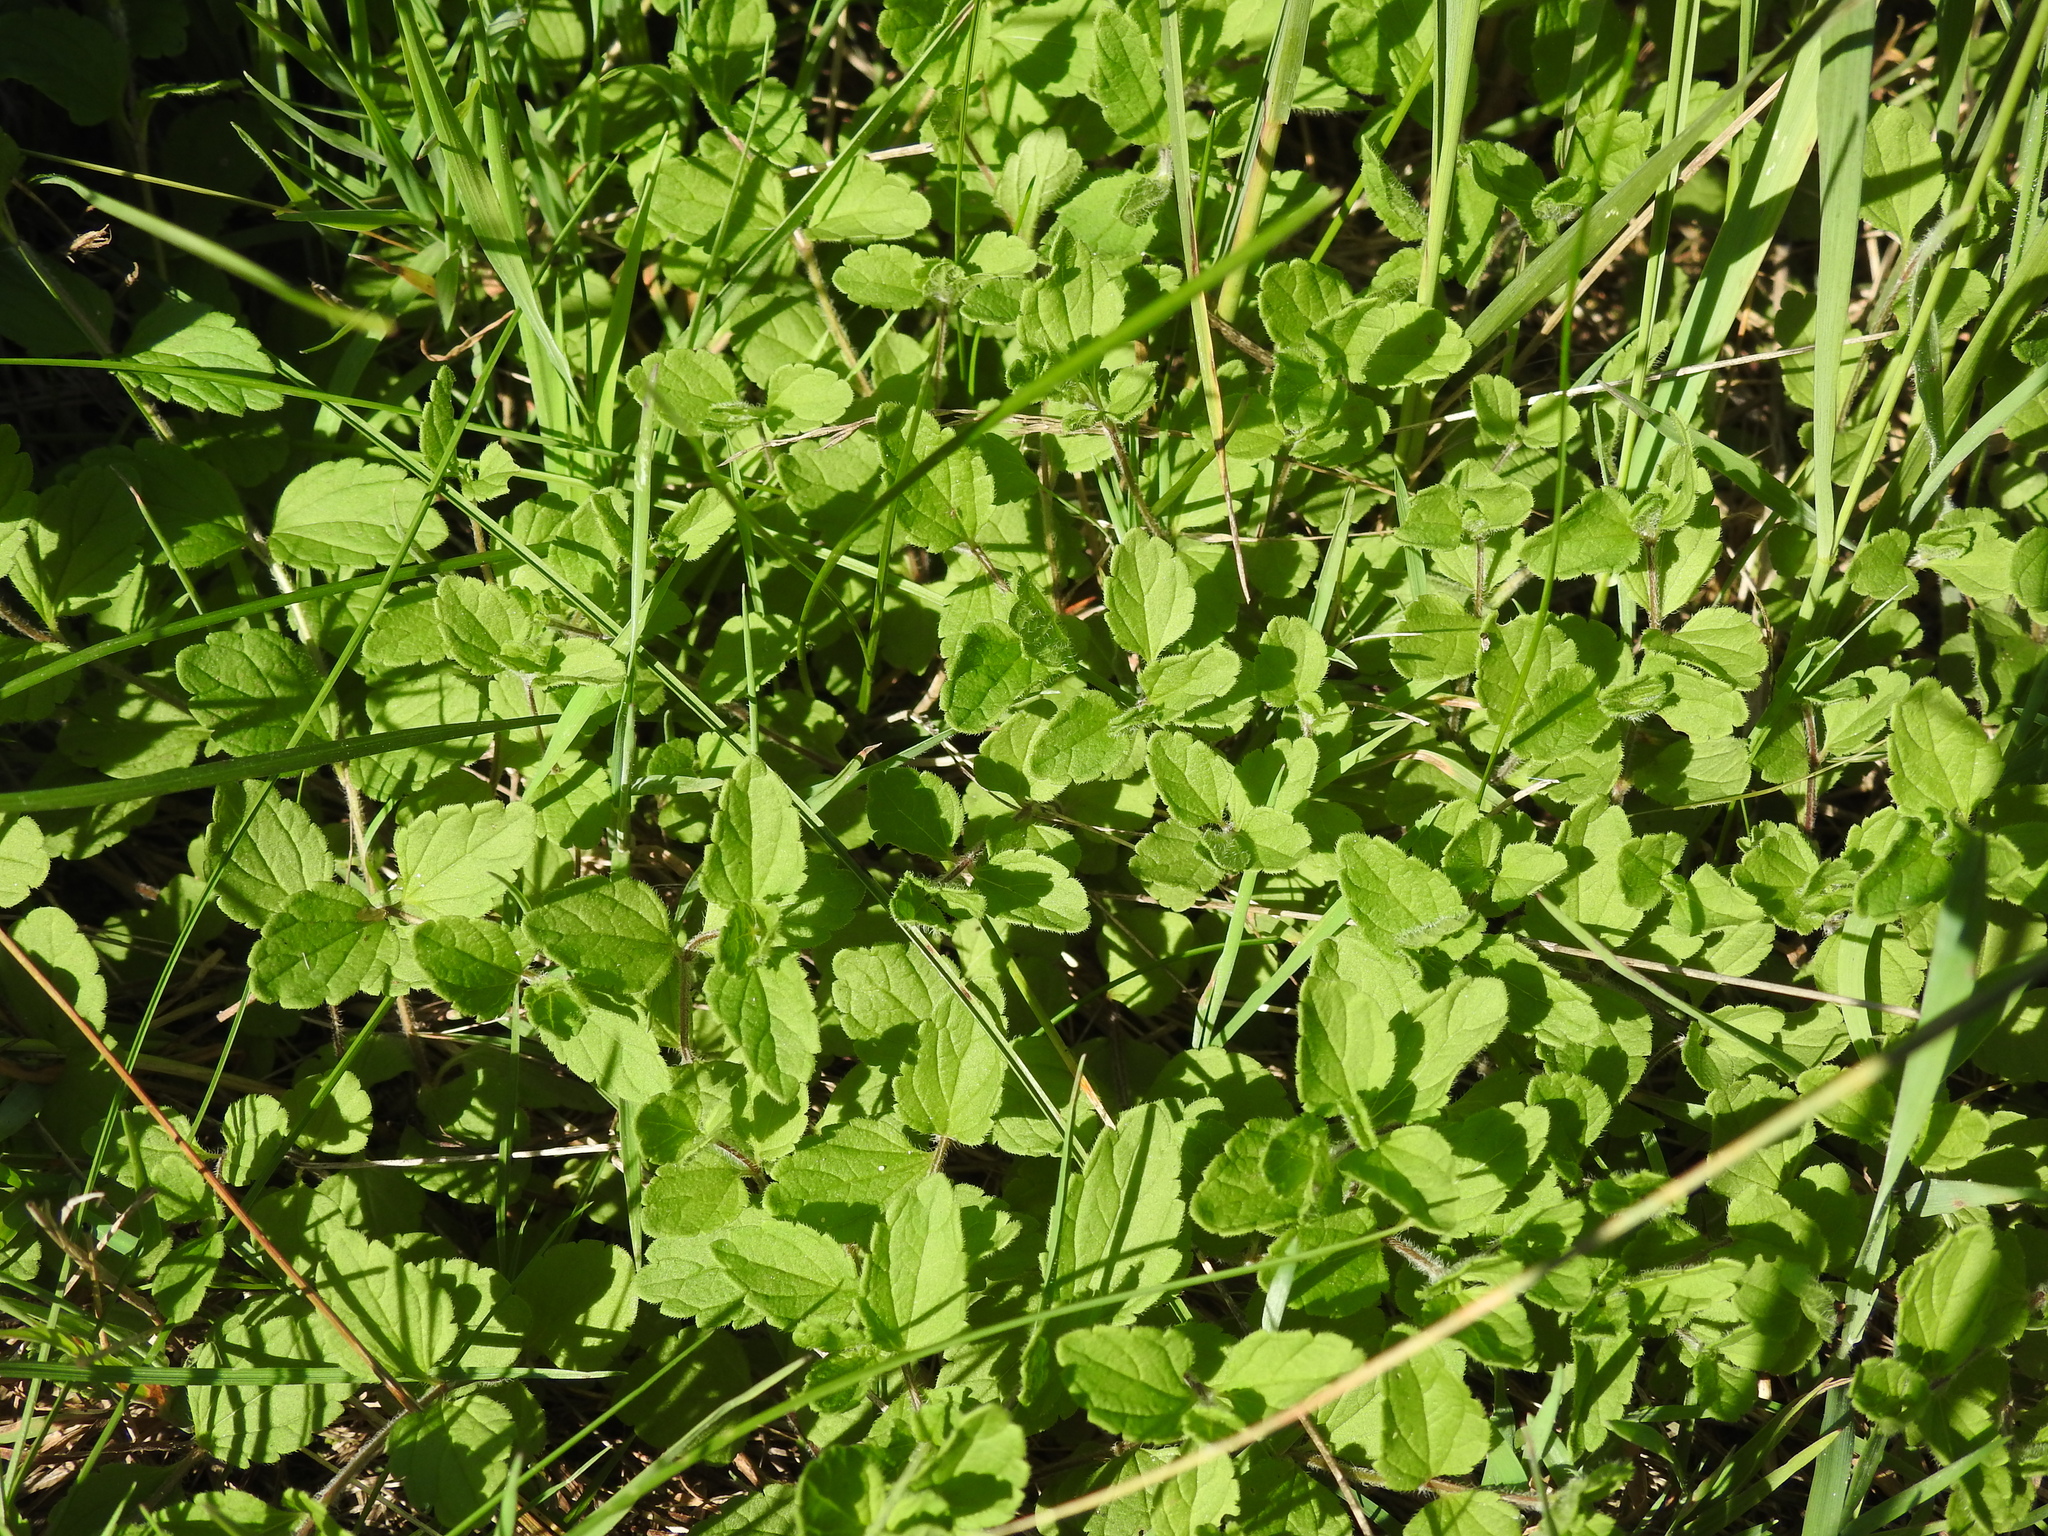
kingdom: Plantae
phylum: Tracheophyta
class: Magnoliopsida
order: Lamiales
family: Plantaginaceae
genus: Veronica
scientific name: Veronica chamaedrys
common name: Germander speedwell
